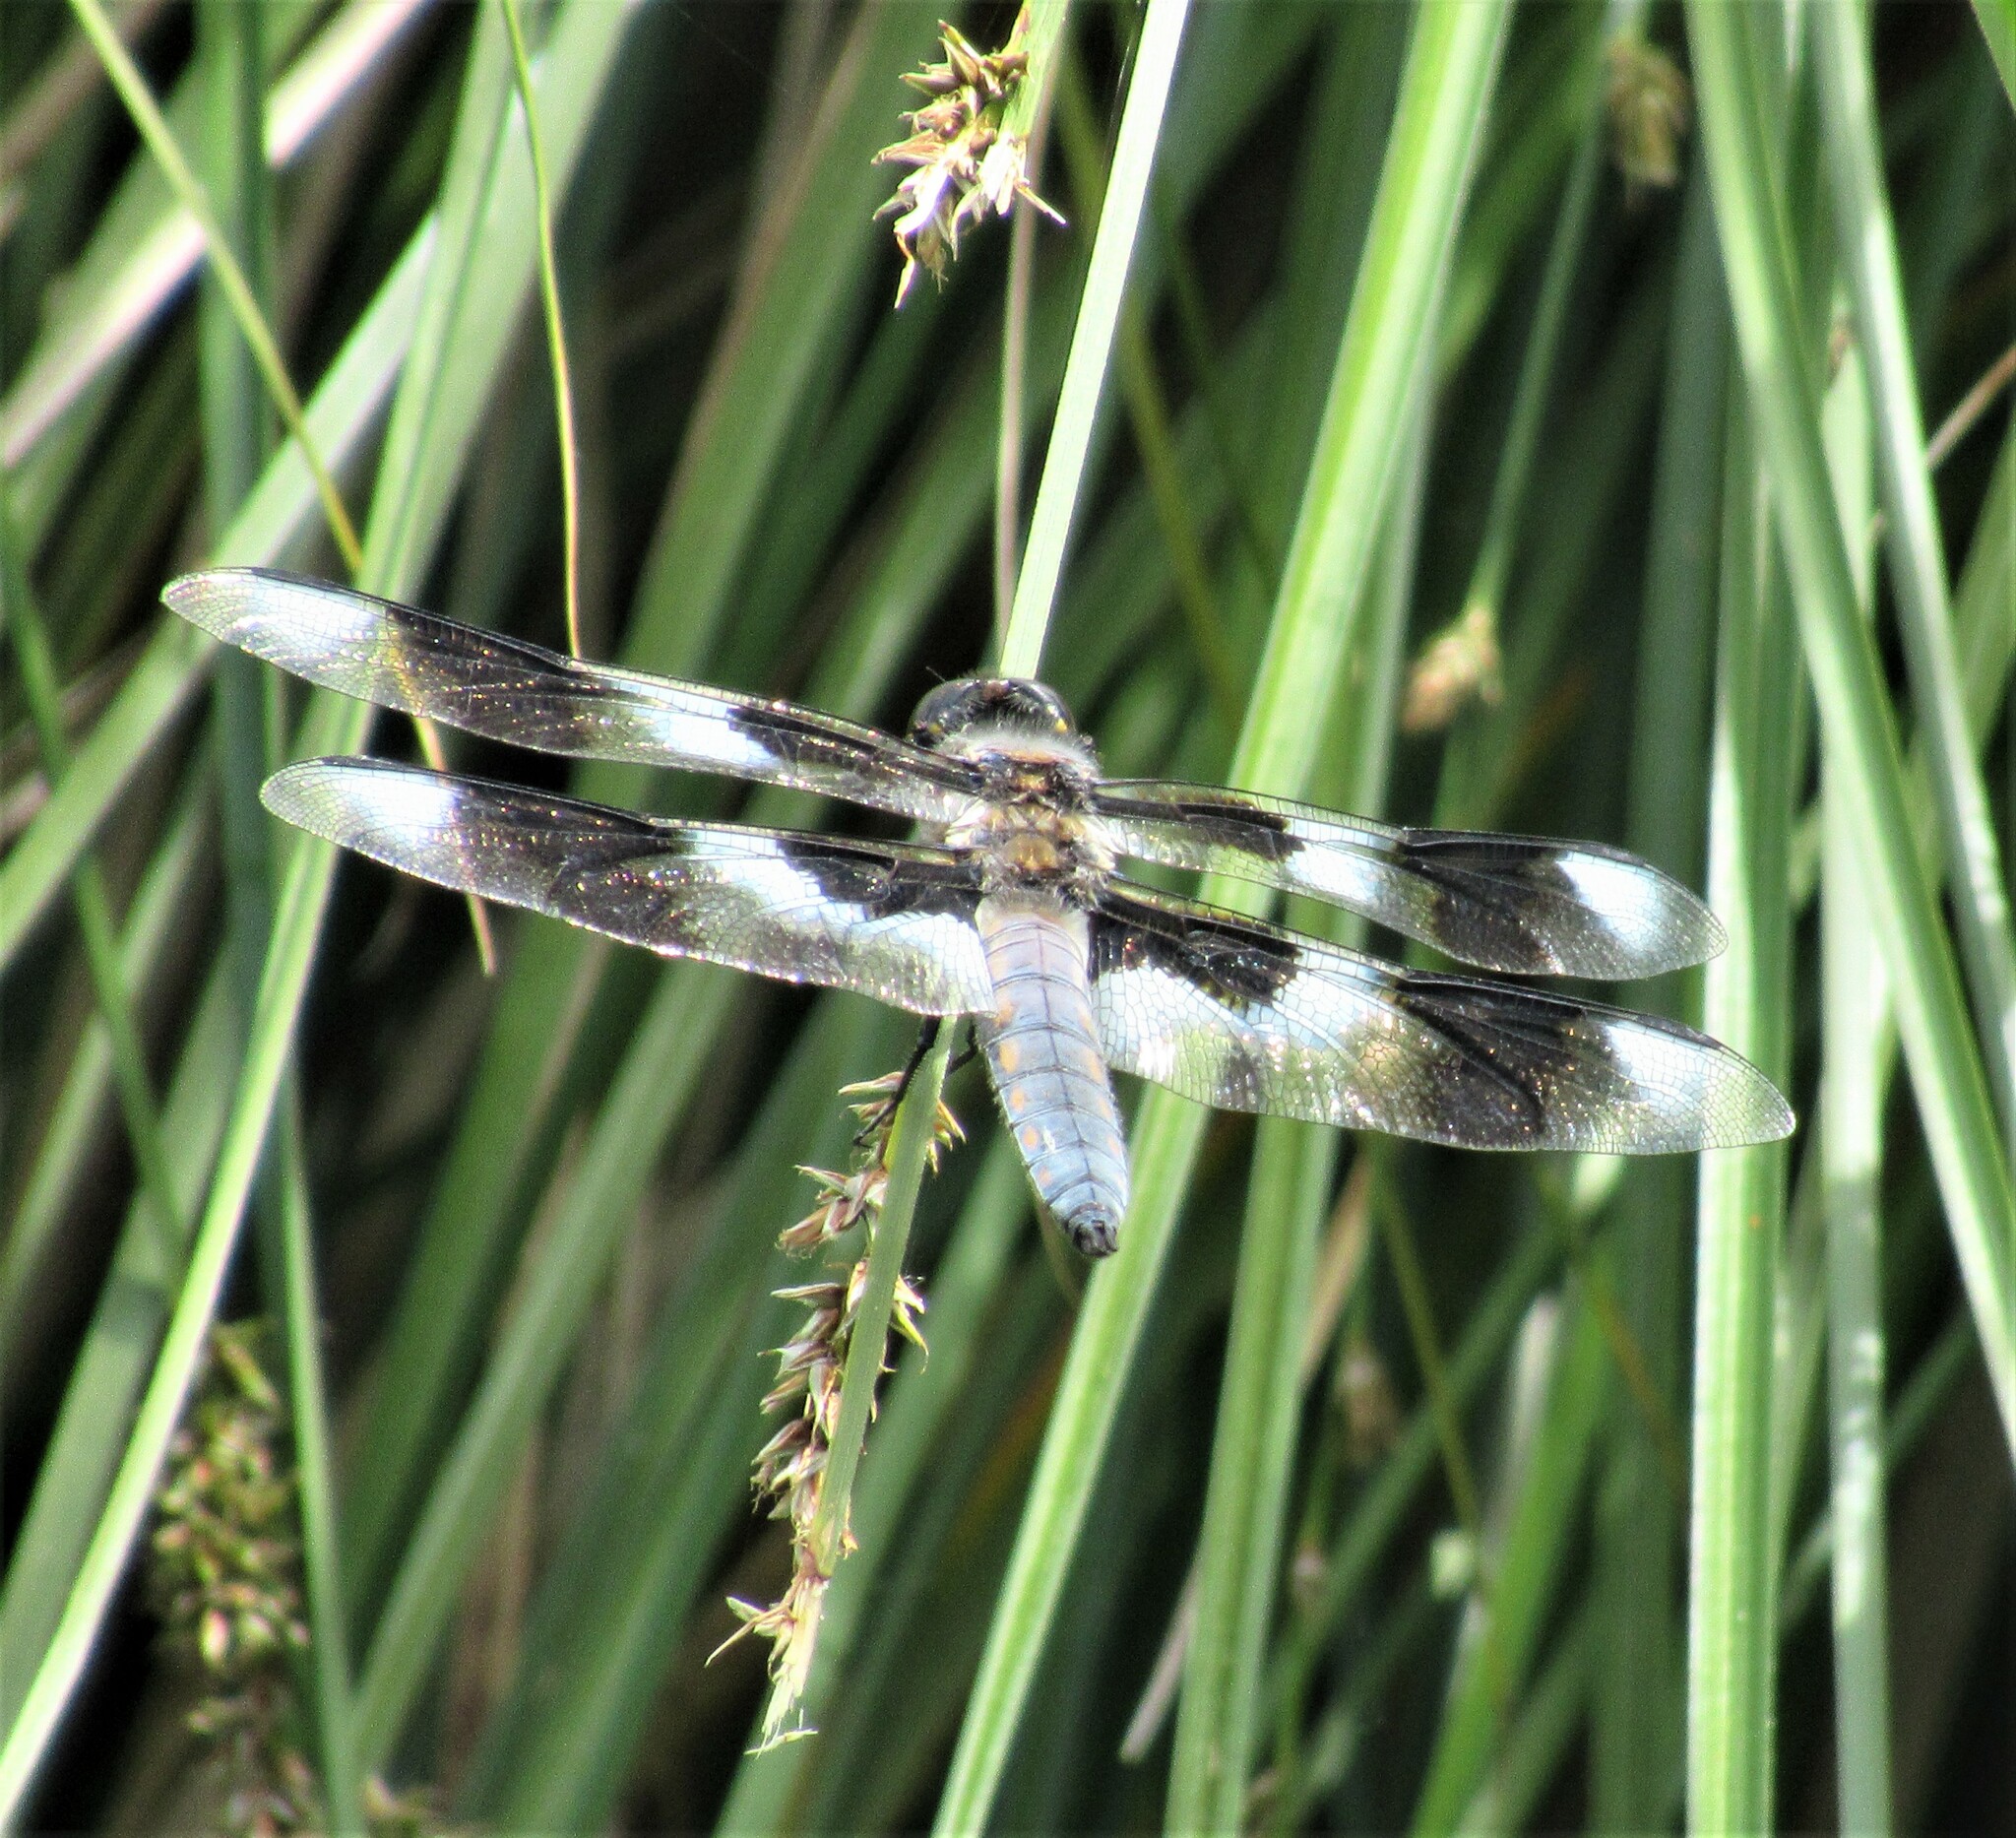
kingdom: Animalia
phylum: Arthropoda
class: Insecta
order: Odonata
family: Libellulidae
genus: Libellula
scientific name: Libellula forensis
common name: Eight-spotted skimmer
